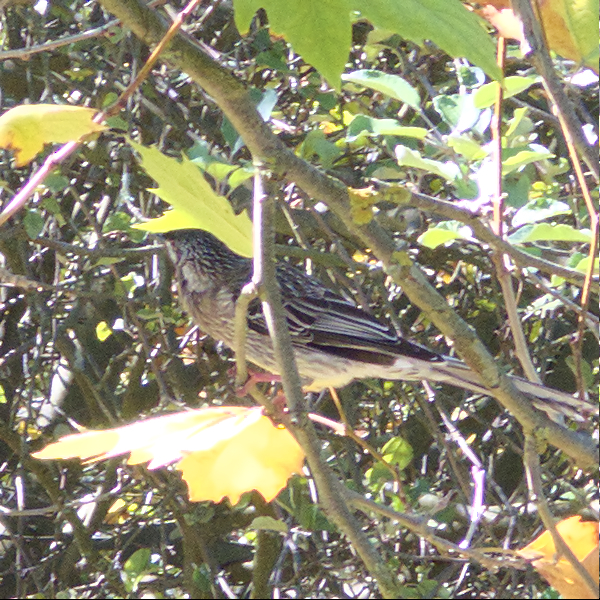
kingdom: Animalia
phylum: Chordata
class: Aves
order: Passeriformes
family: Meliphagidae
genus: Anthochaera
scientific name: Anthochaera carunculata
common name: Red wattlebird
